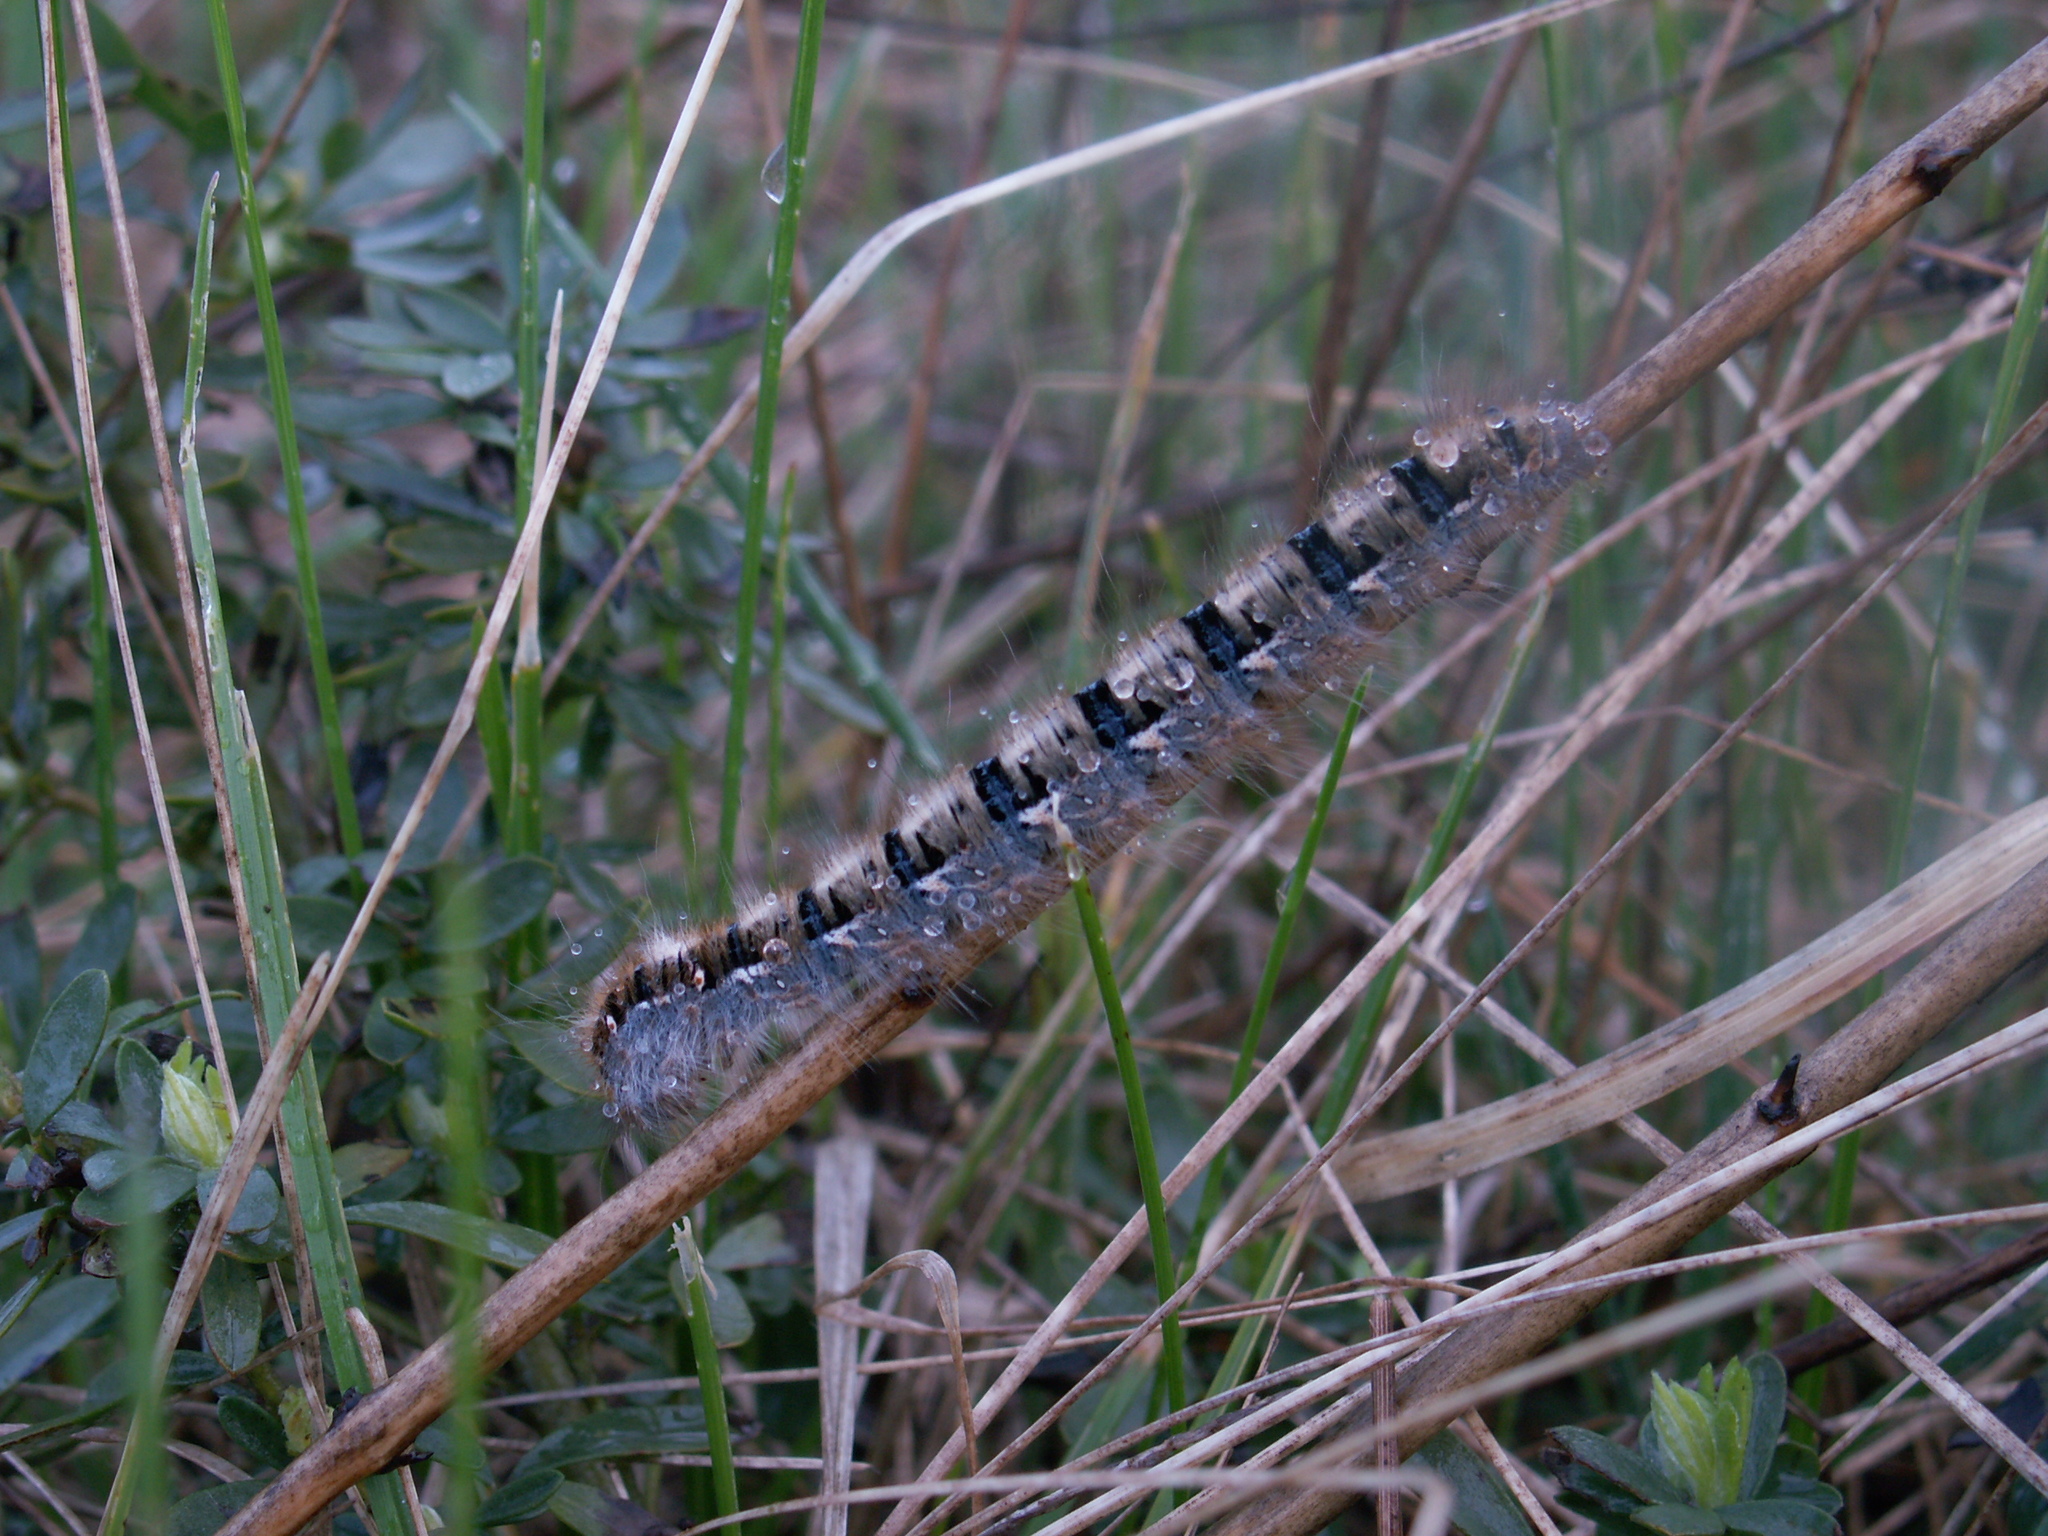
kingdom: Animalia
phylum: Arthropoda
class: Insecta
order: Lepidoptera
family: Lasiocampidae
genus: Lasiocampa
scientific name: Lasiocampa quercus
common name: Oak eggar
